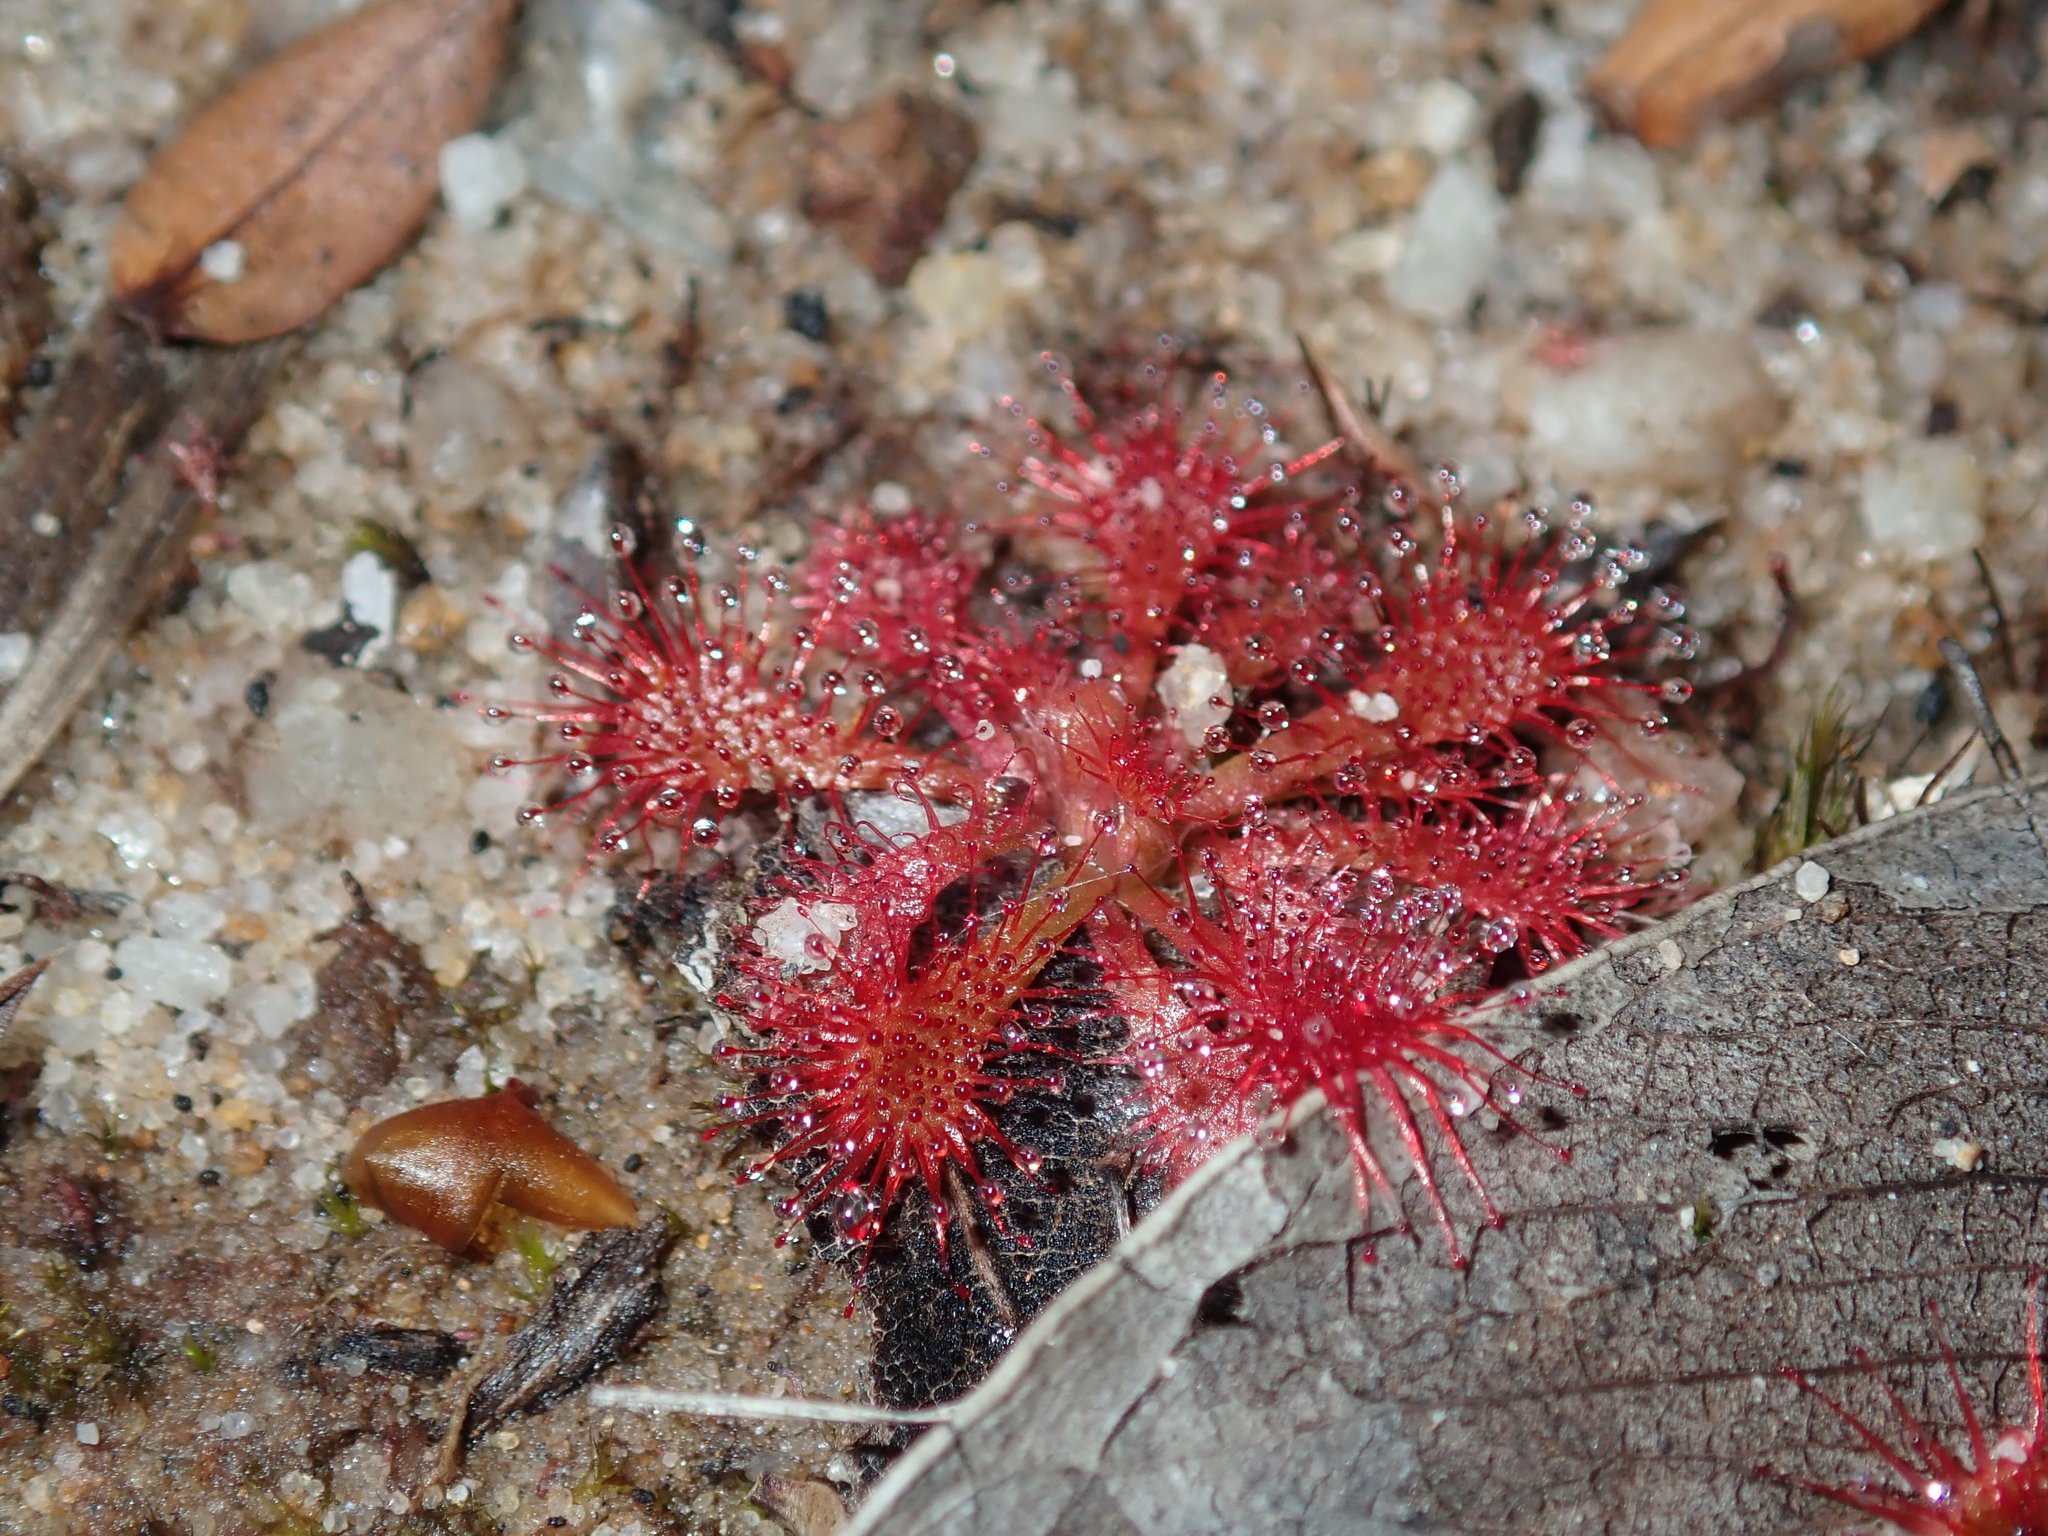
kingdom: Plantae
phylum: Tracheophyta
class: Magnoliopsida
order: Caryophyllales
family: Droseraceae
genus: Drosera
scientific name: Drosera spatulata
